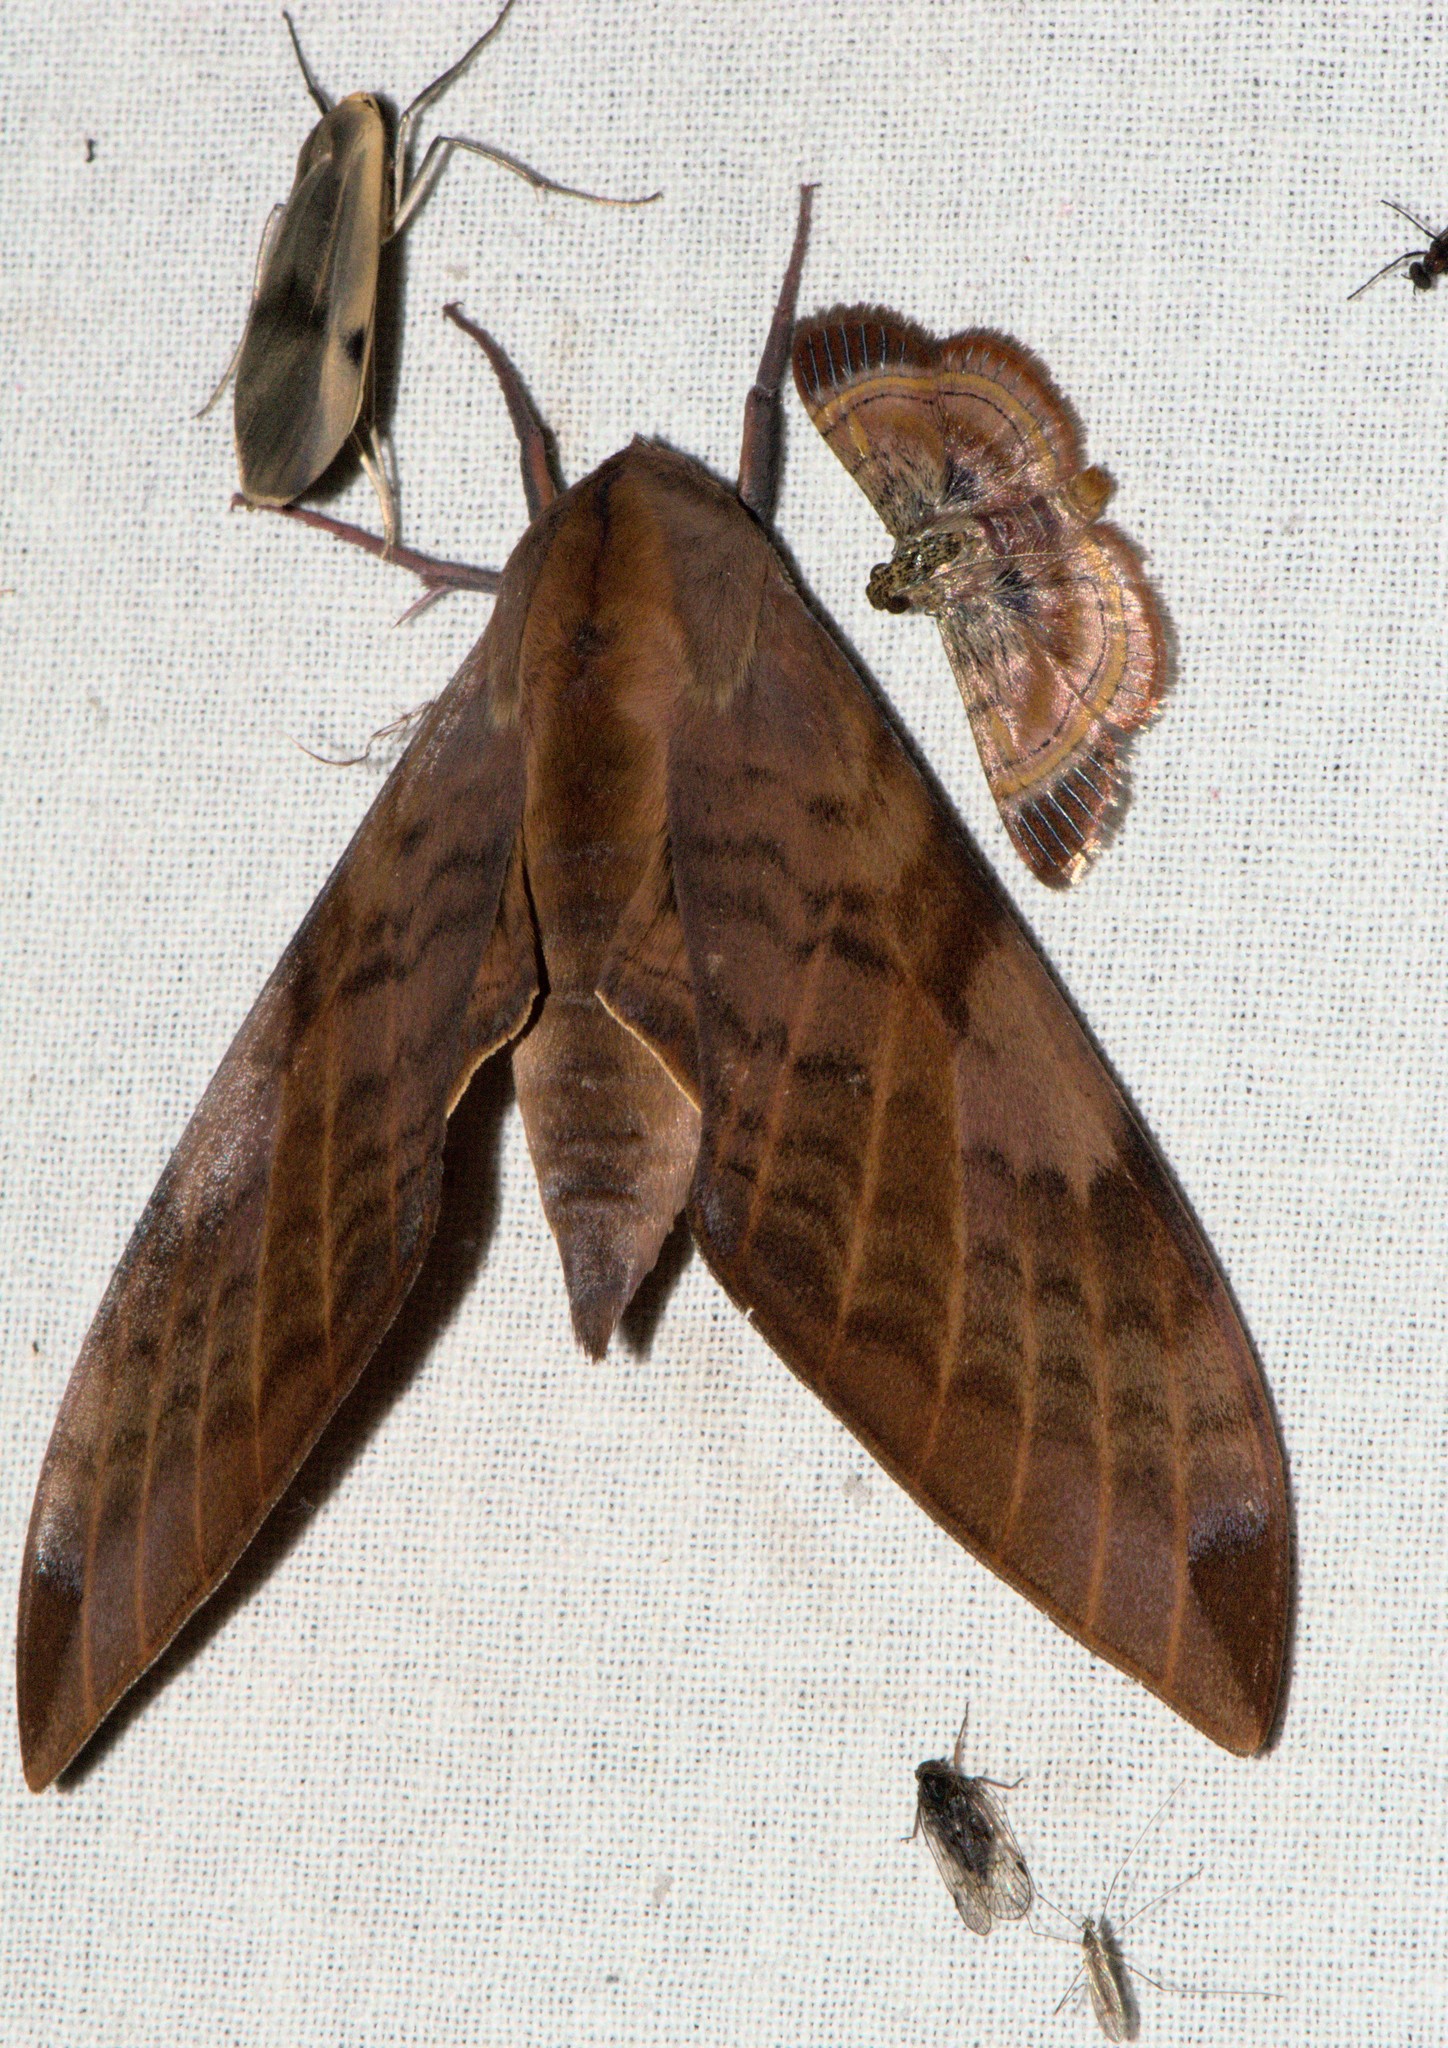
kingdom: Animalia
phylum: Arthropoda
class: Insecta
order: Lepidoptera
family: Sphingidae
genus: Clanis
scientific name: Clanis undulosa
